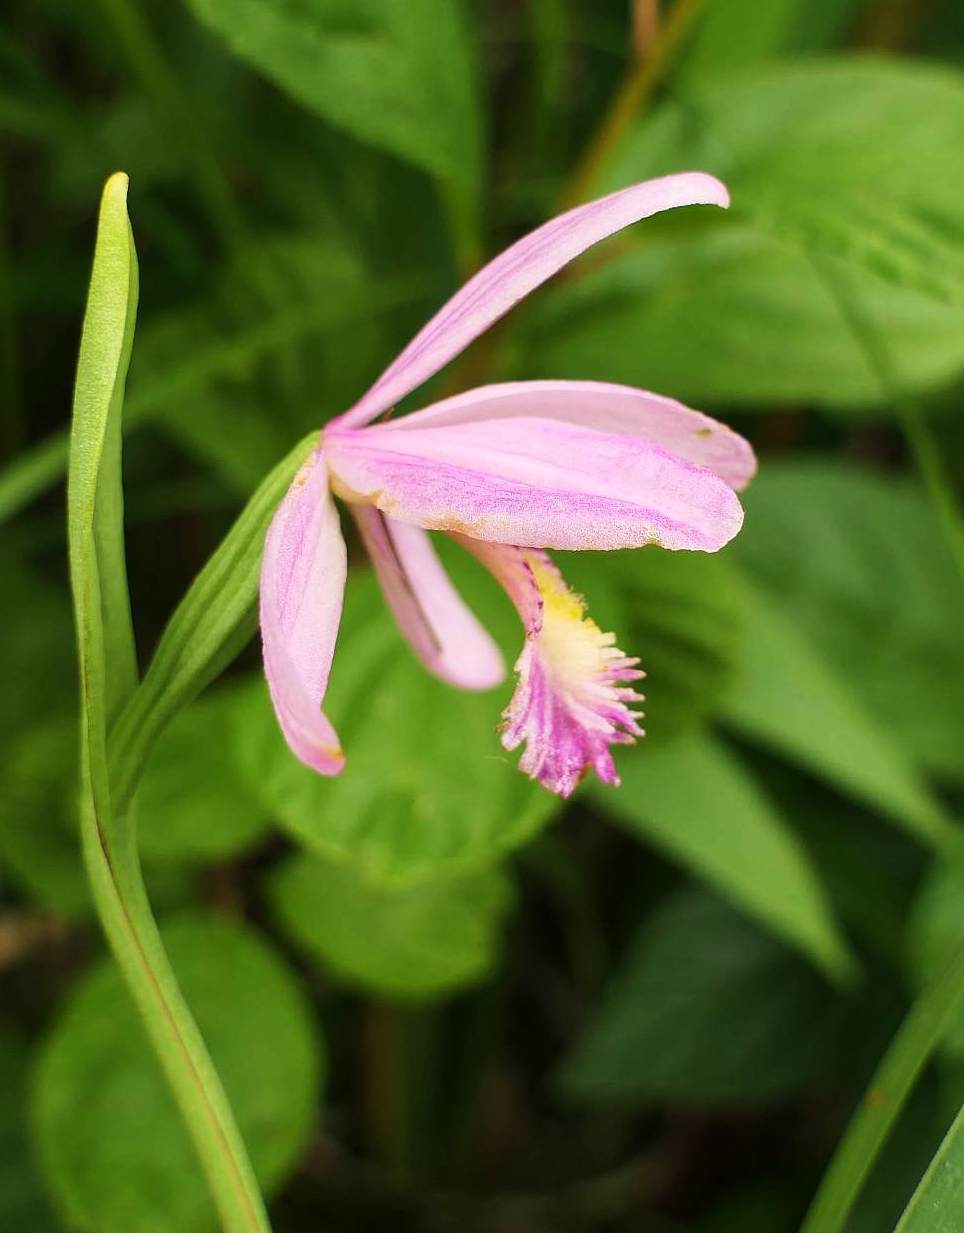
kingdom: Plantae
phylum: Tracheophyta
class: Liliopsida
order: Asparagales
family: Orchidaceae
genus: Pogonia
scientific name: Pogonia ophioglossoides
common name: Rose pogonia
